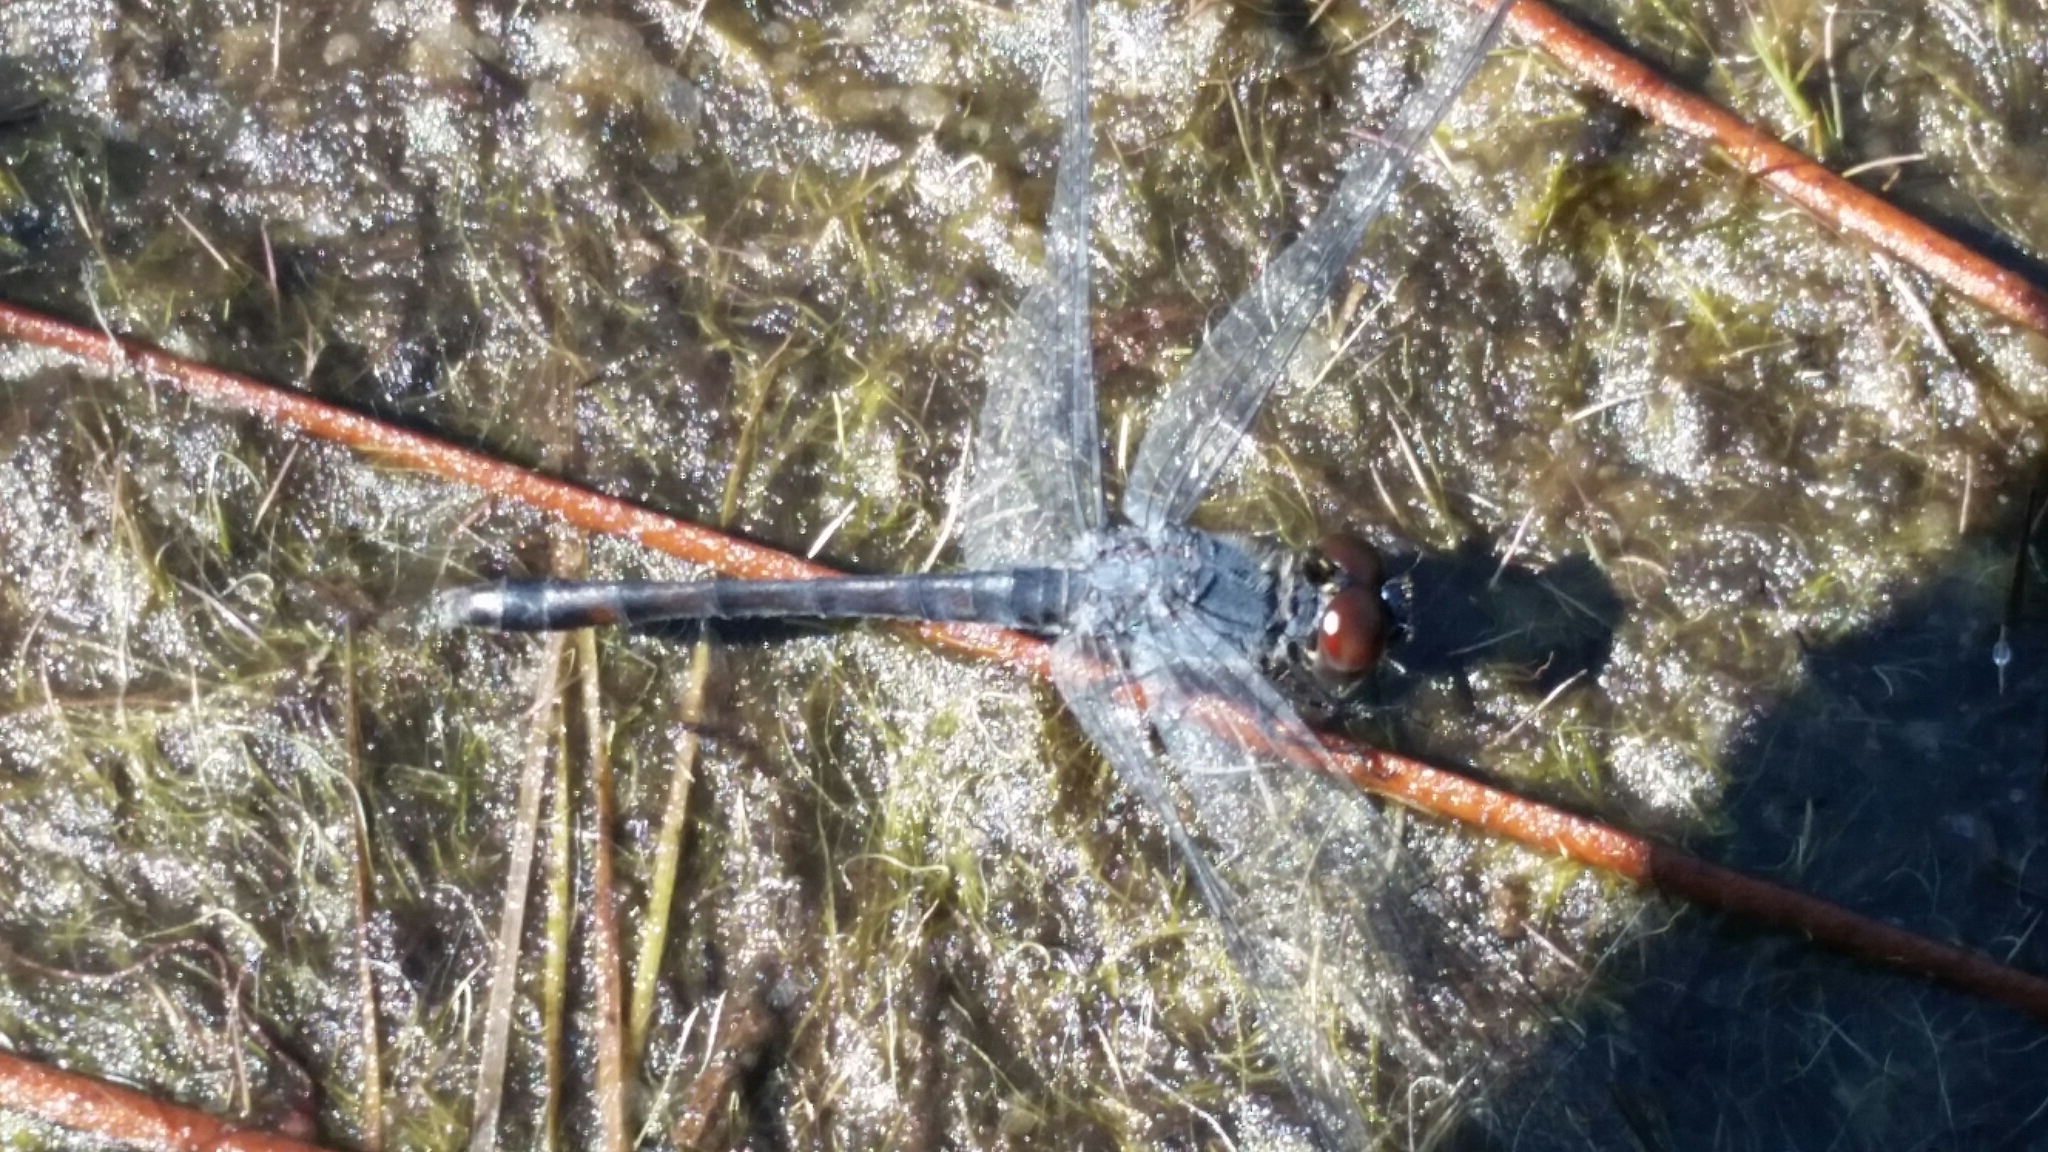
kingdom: Animalia
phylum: Arthropoda
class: Insecta
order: Odonata
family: Libellulidae
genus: Erythrodiplax
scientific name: Erythrodiplax berenice
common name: Seaside dragonlet
